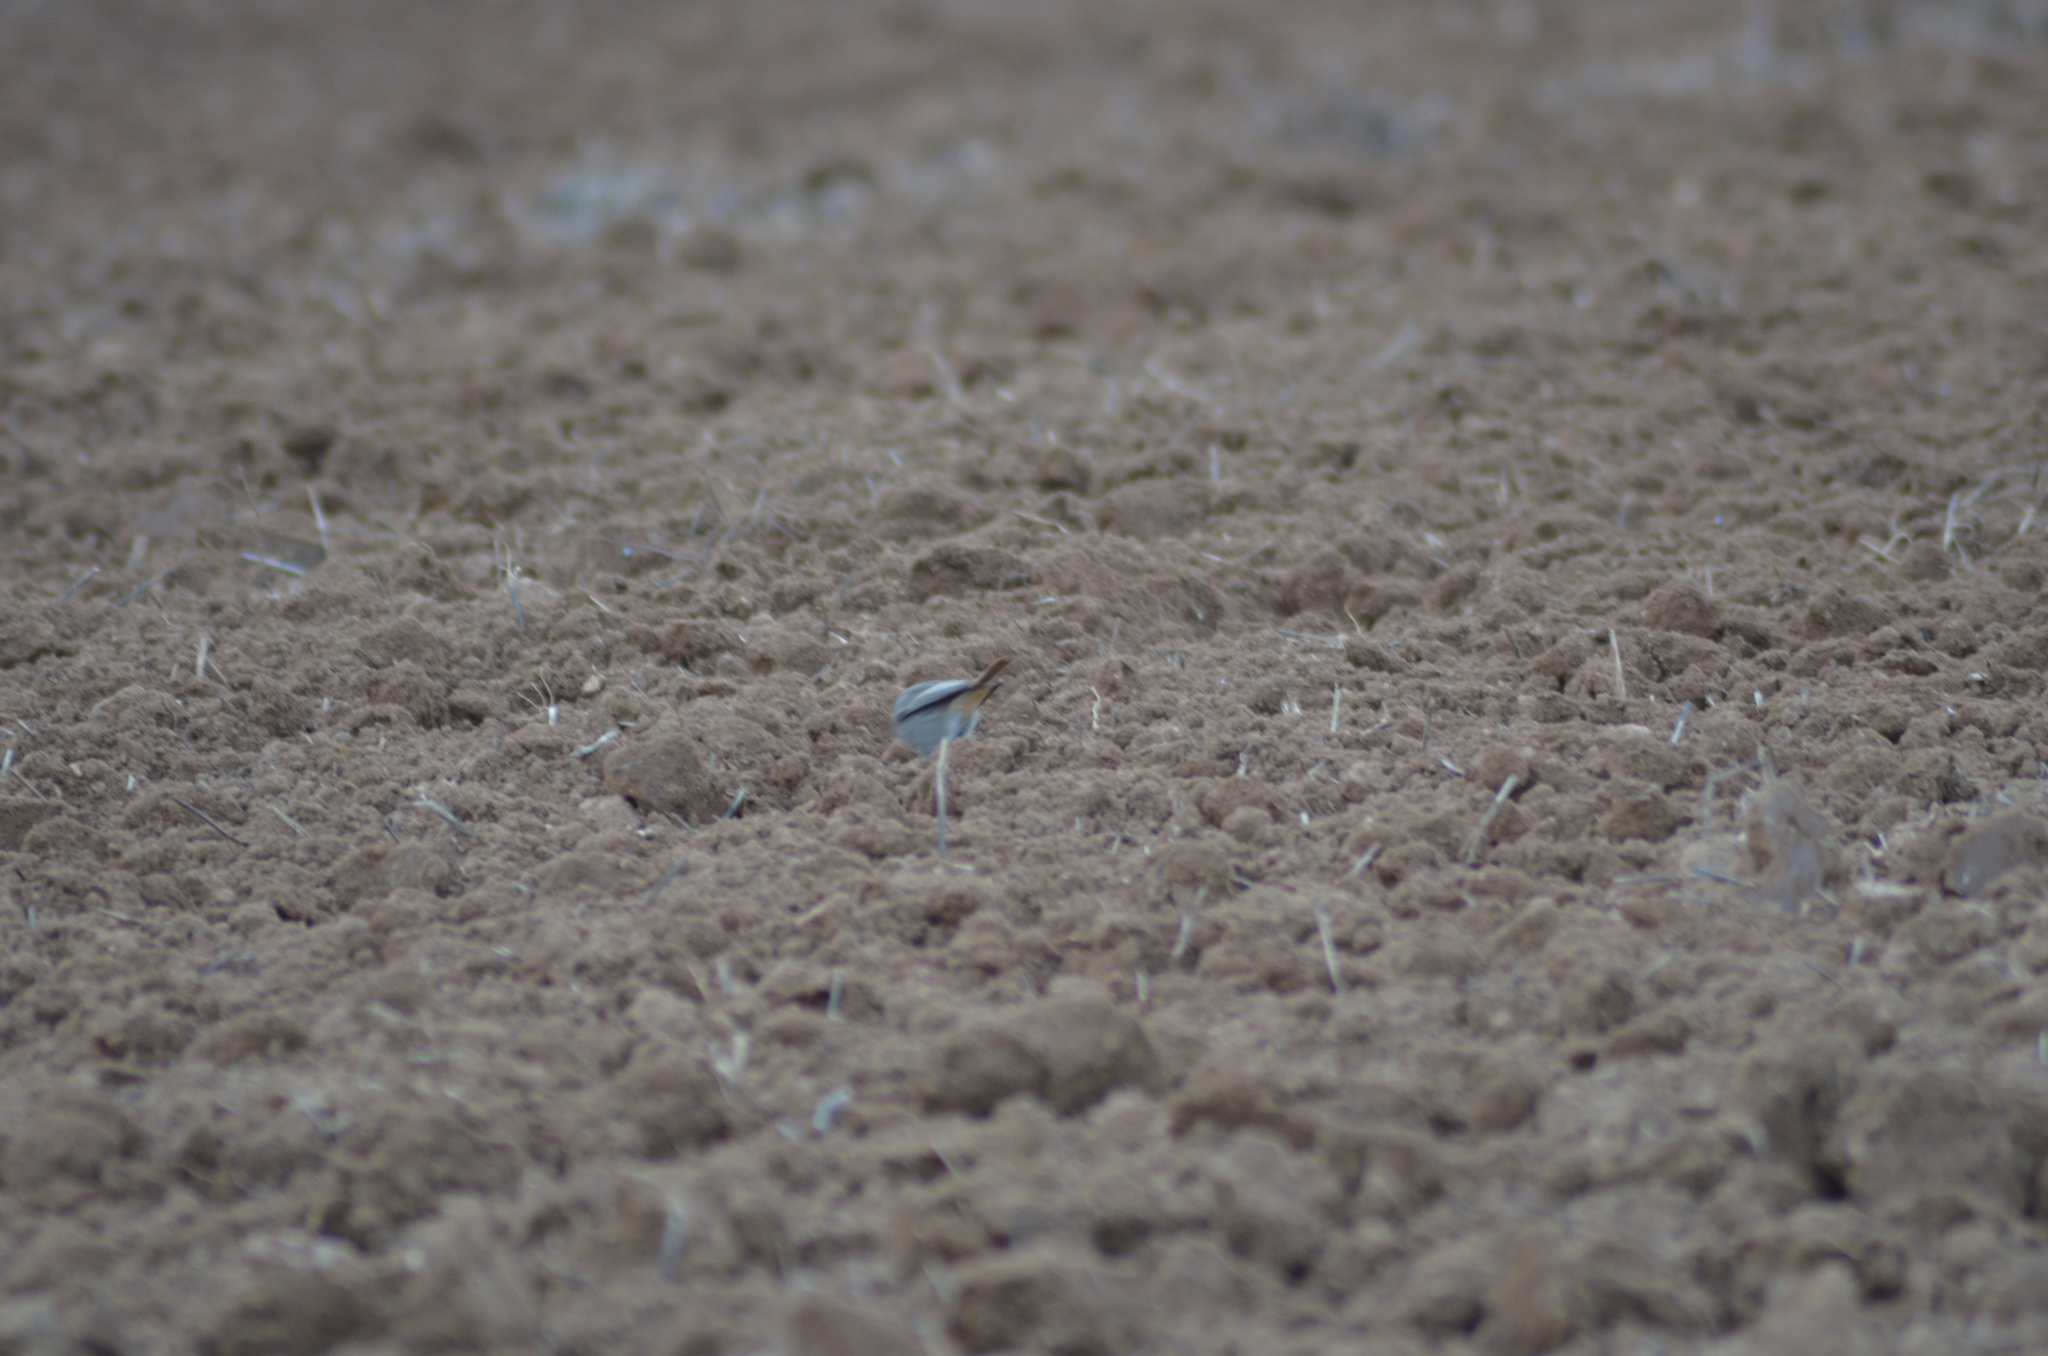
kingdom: Animalia
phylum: Chordata
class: Aves
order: Passeriformes
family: Muscicapidae
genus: Phoenicurus
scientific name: Phoenicurus ochruros
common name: Black redstart
